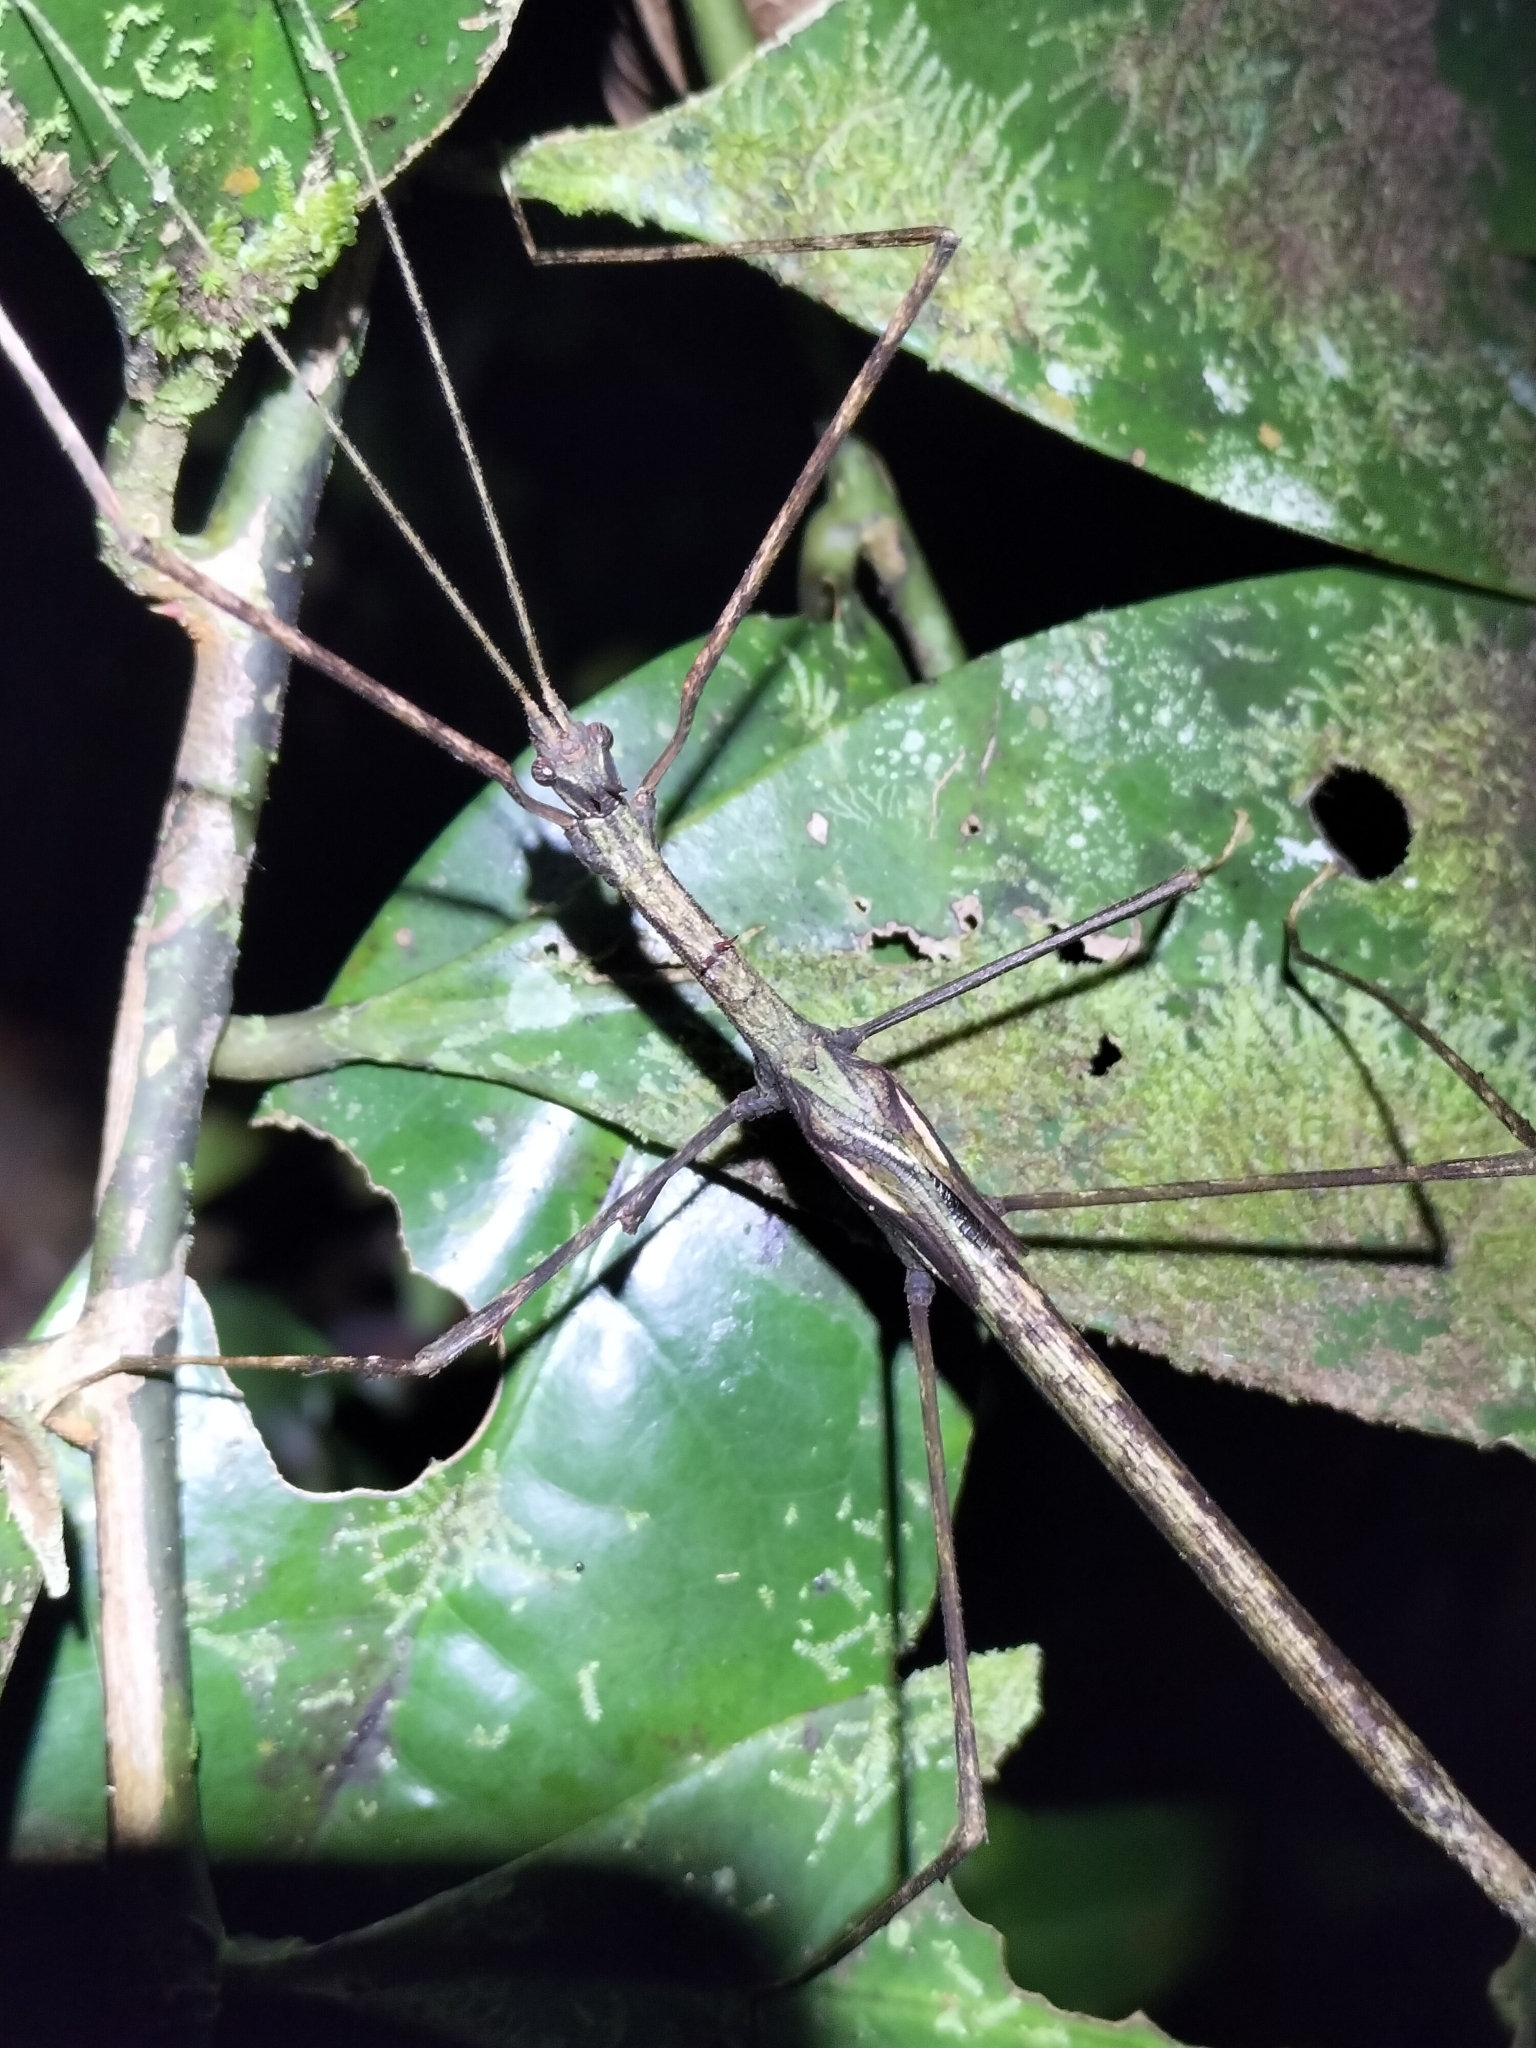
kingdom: Animalia
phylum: Arthropoda
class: Insecta
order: Phasmida
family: Phasmatidae
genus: Onchestus
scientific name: Onchestus rentzi
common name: Rentz's stick-insect
